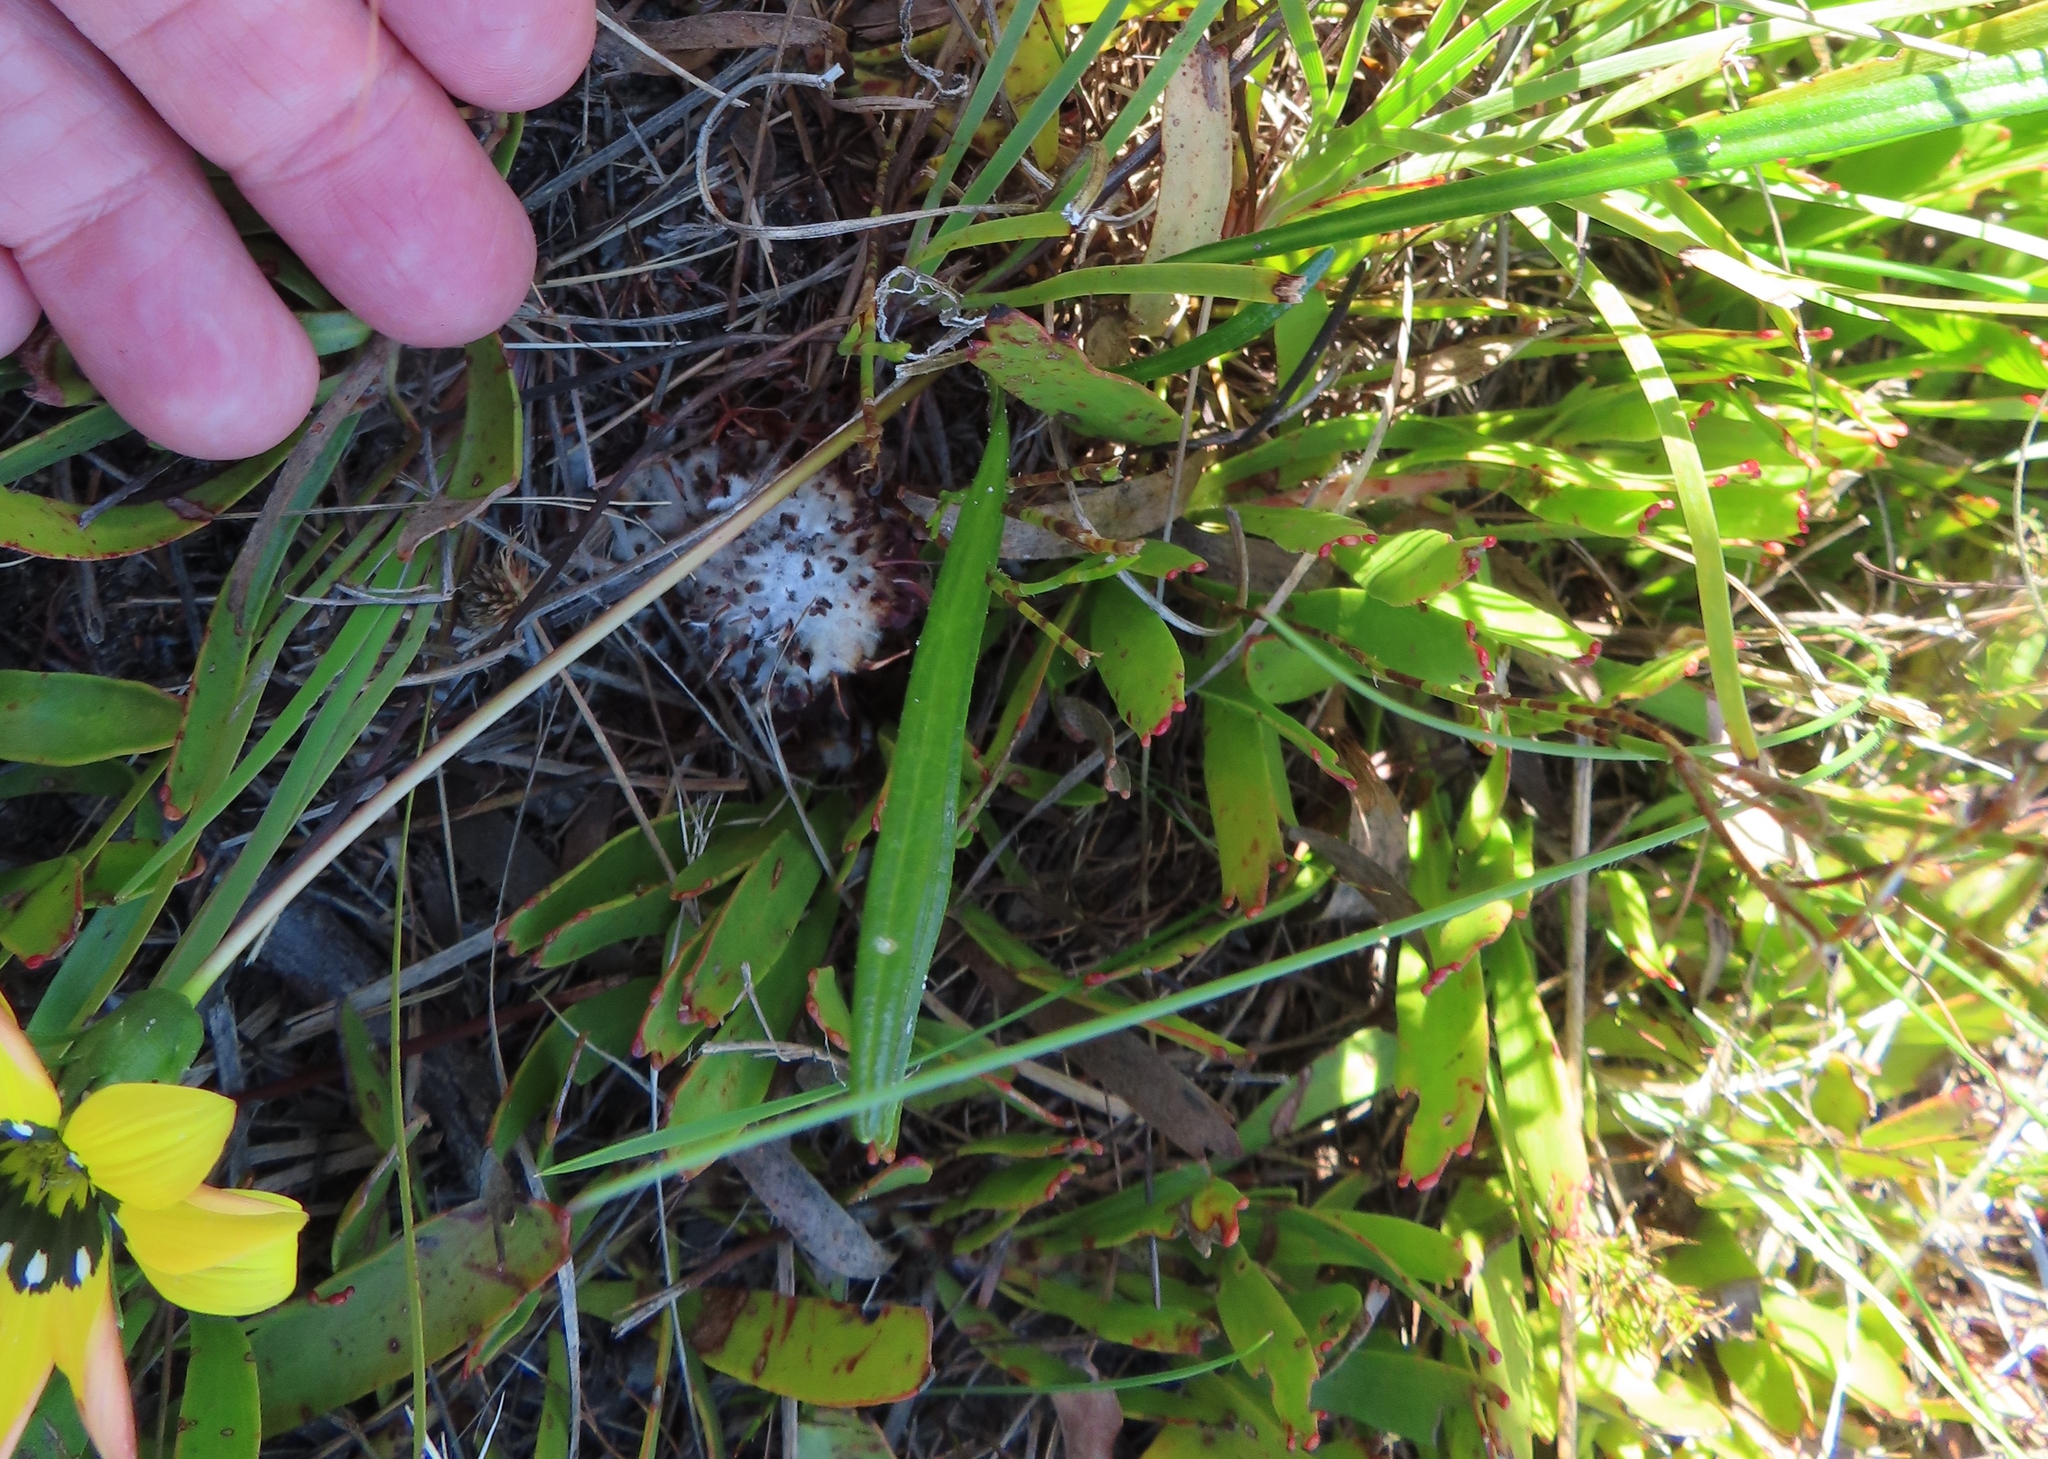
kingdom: Plantae
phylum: Tracheophyta
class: Magnoliopsida
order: Asterales
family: Asteraceae
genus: Gazania
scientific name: Gazania pectinata
